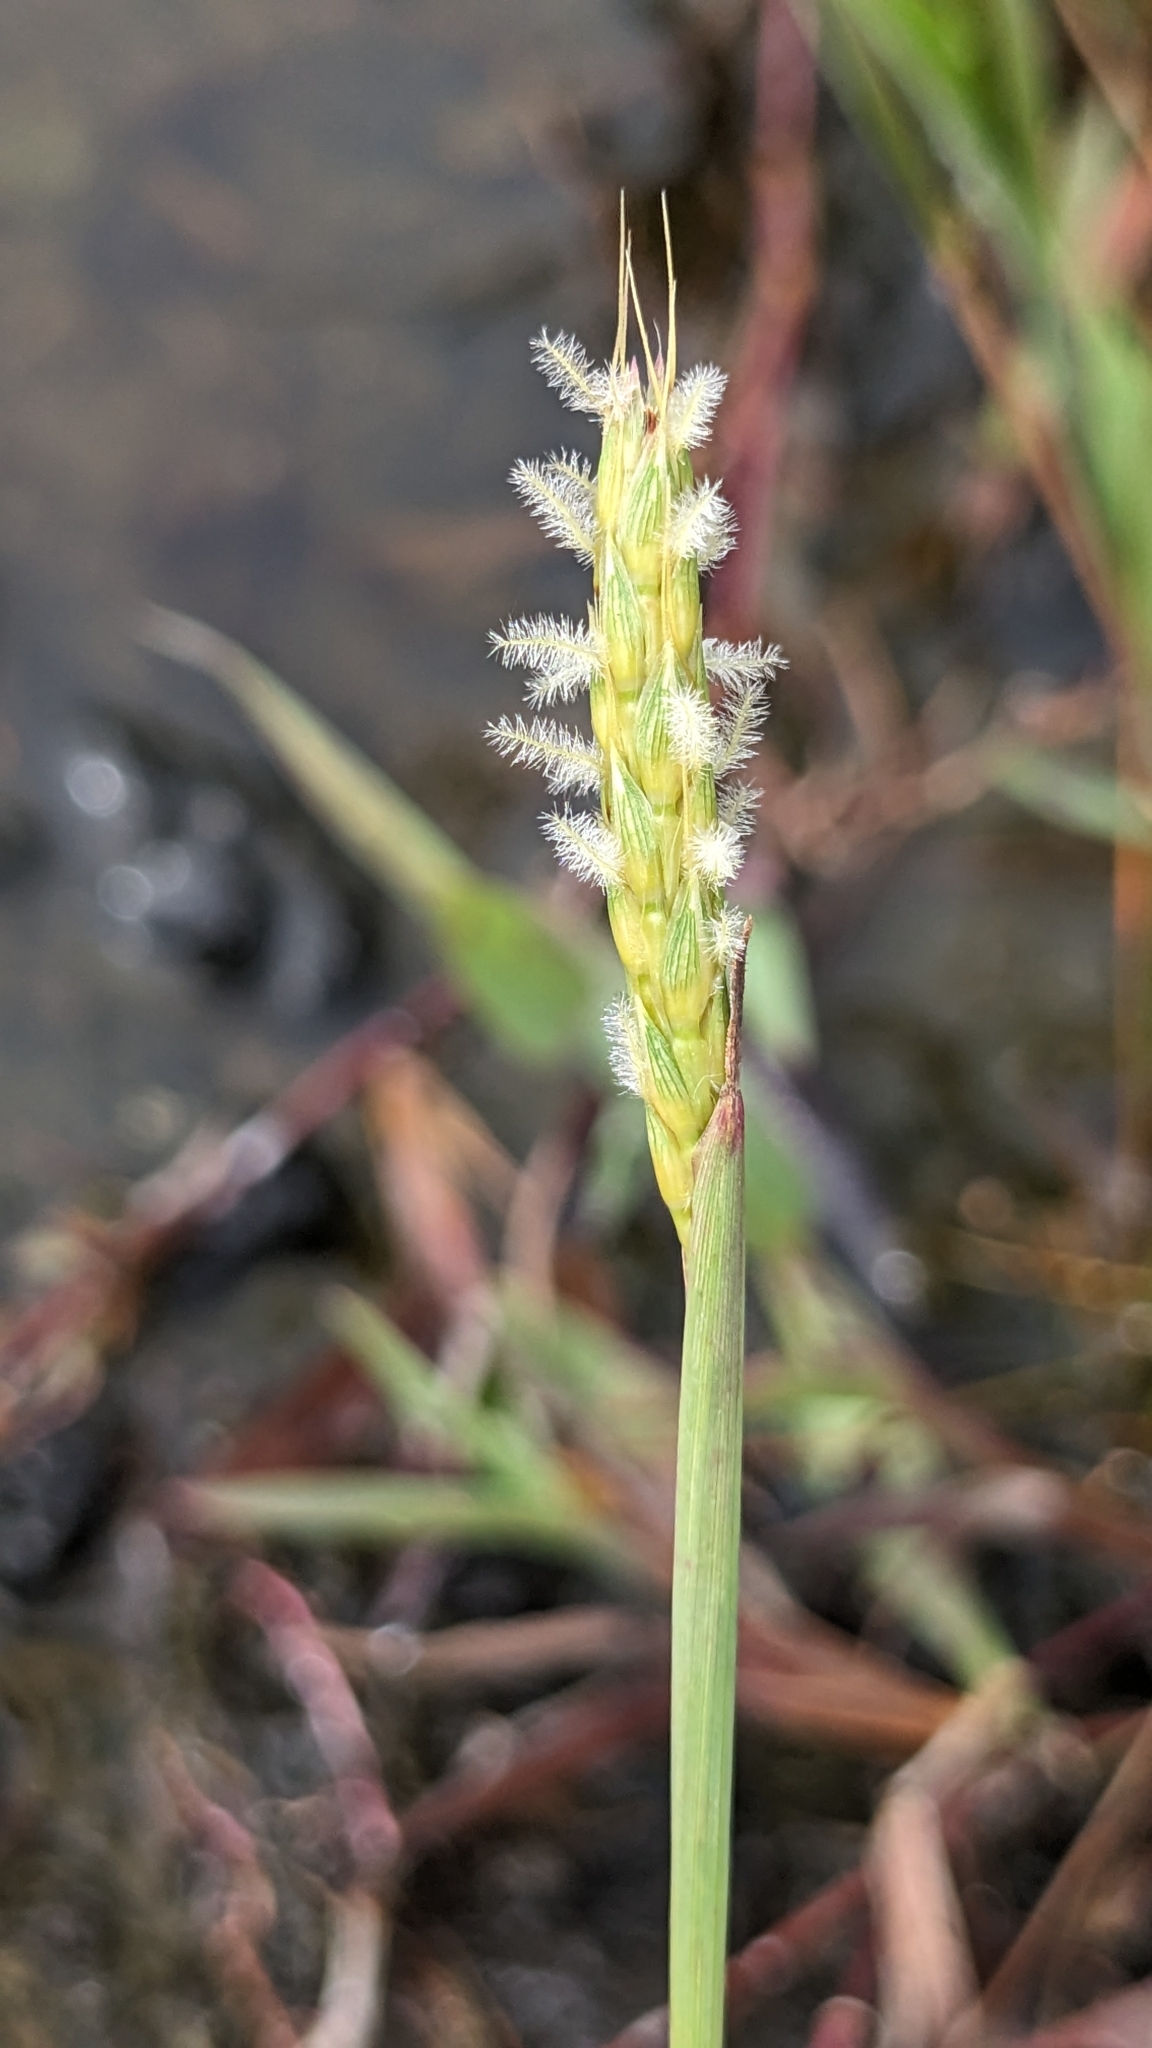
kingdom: Plantae
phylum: Tracheophyta
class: Liliopsida
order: Poales
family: Poaceae
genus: Ischaemum
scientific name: Ischaemum setaceum
